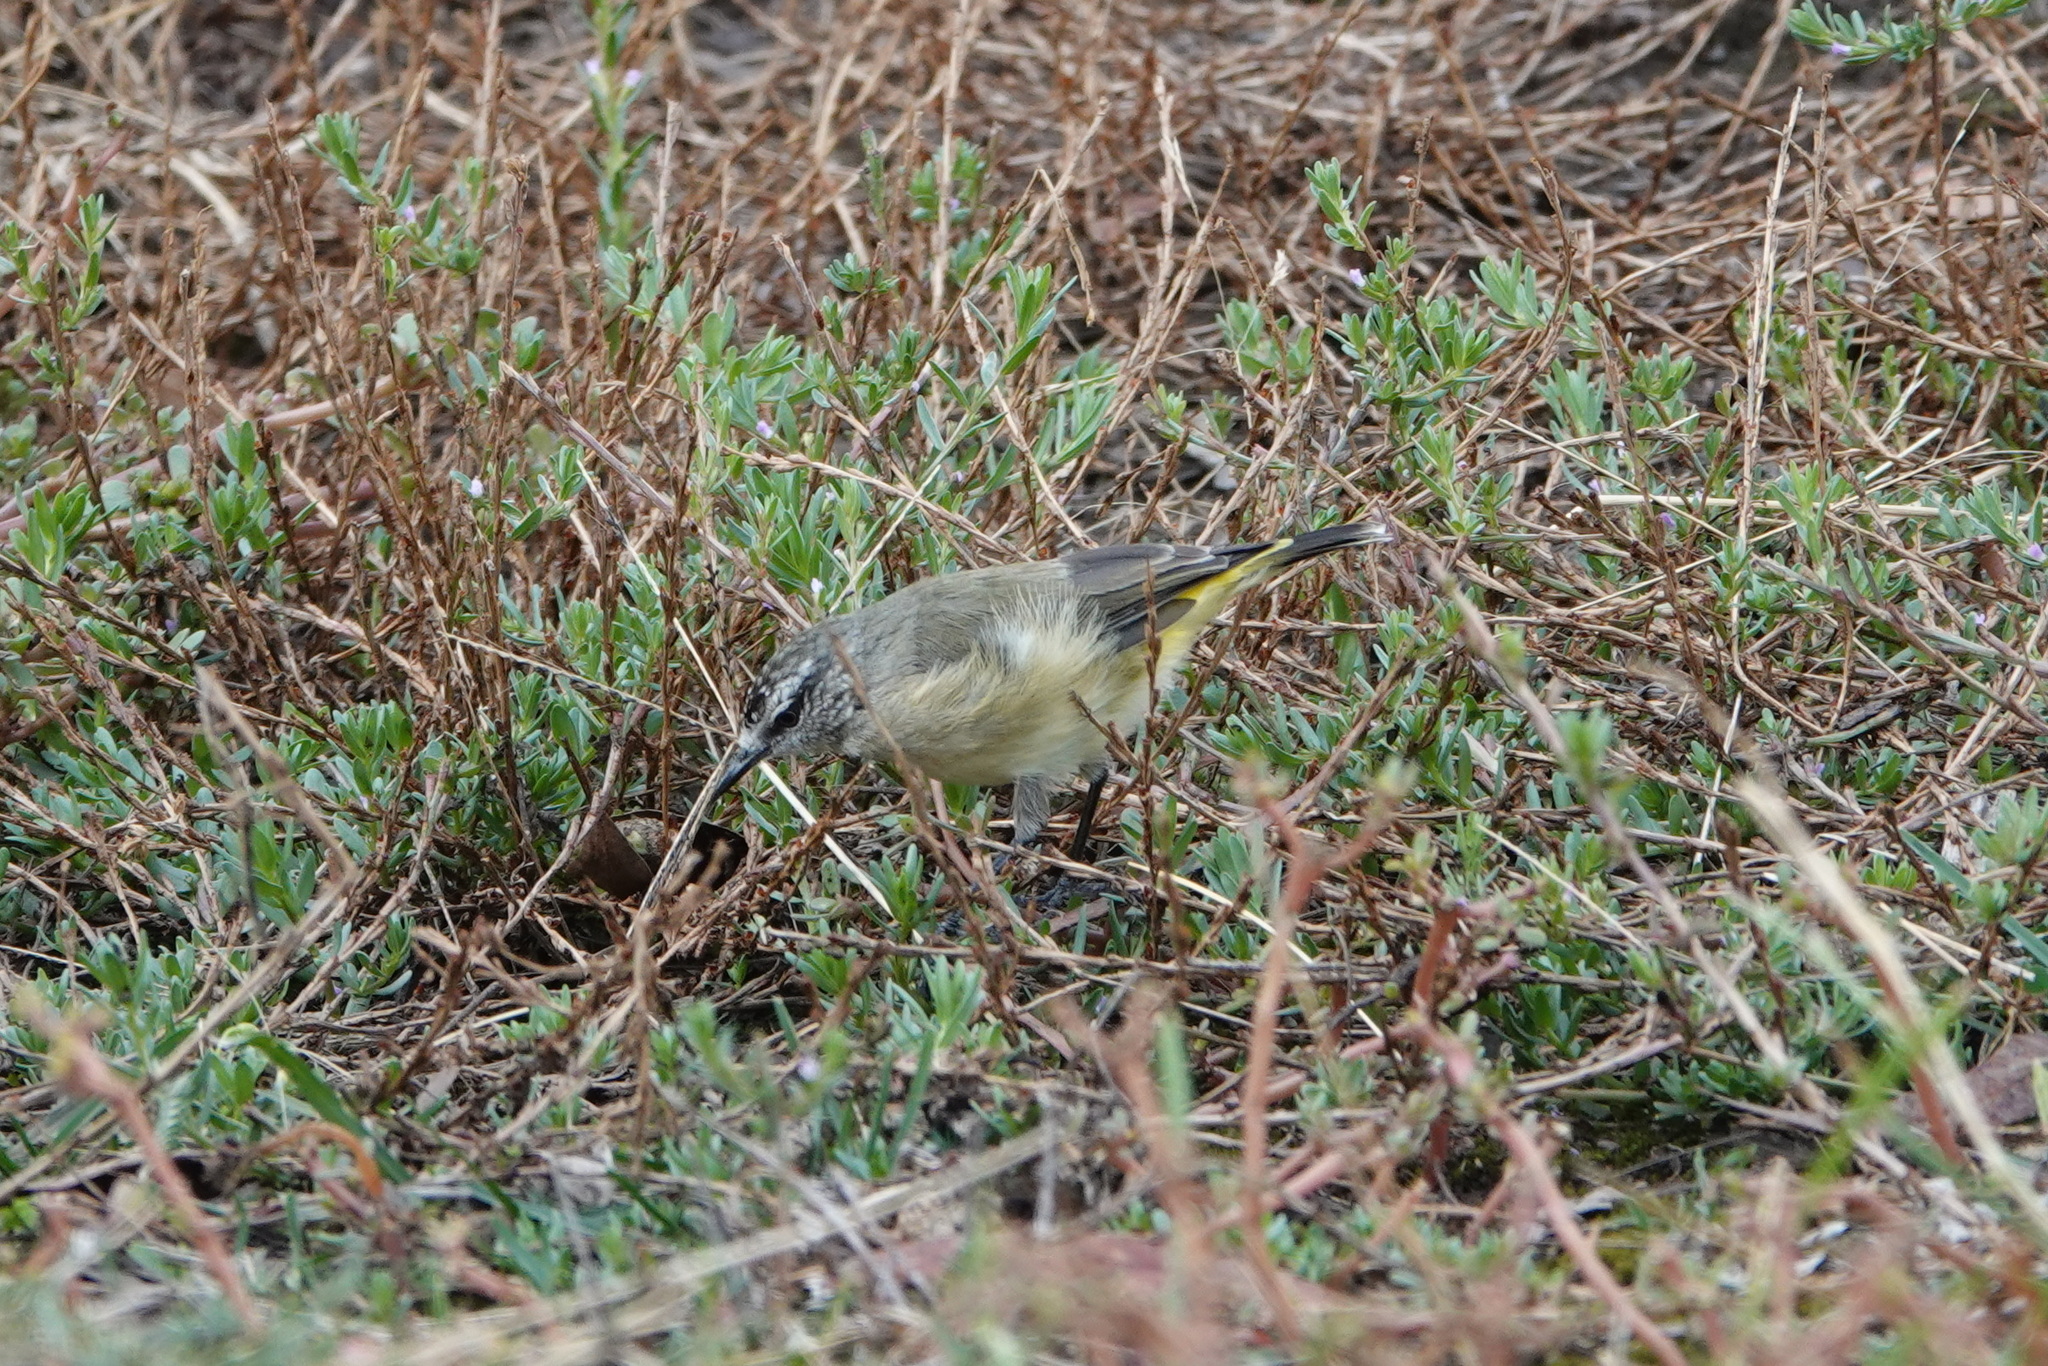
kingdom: Animalia
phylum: Chordata
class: Aves
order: Passeriformes
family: Acanthizidae
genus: Acanthiza
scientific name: Acanthiza chrysorrhoa
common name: Yellow-rumped thornbill
